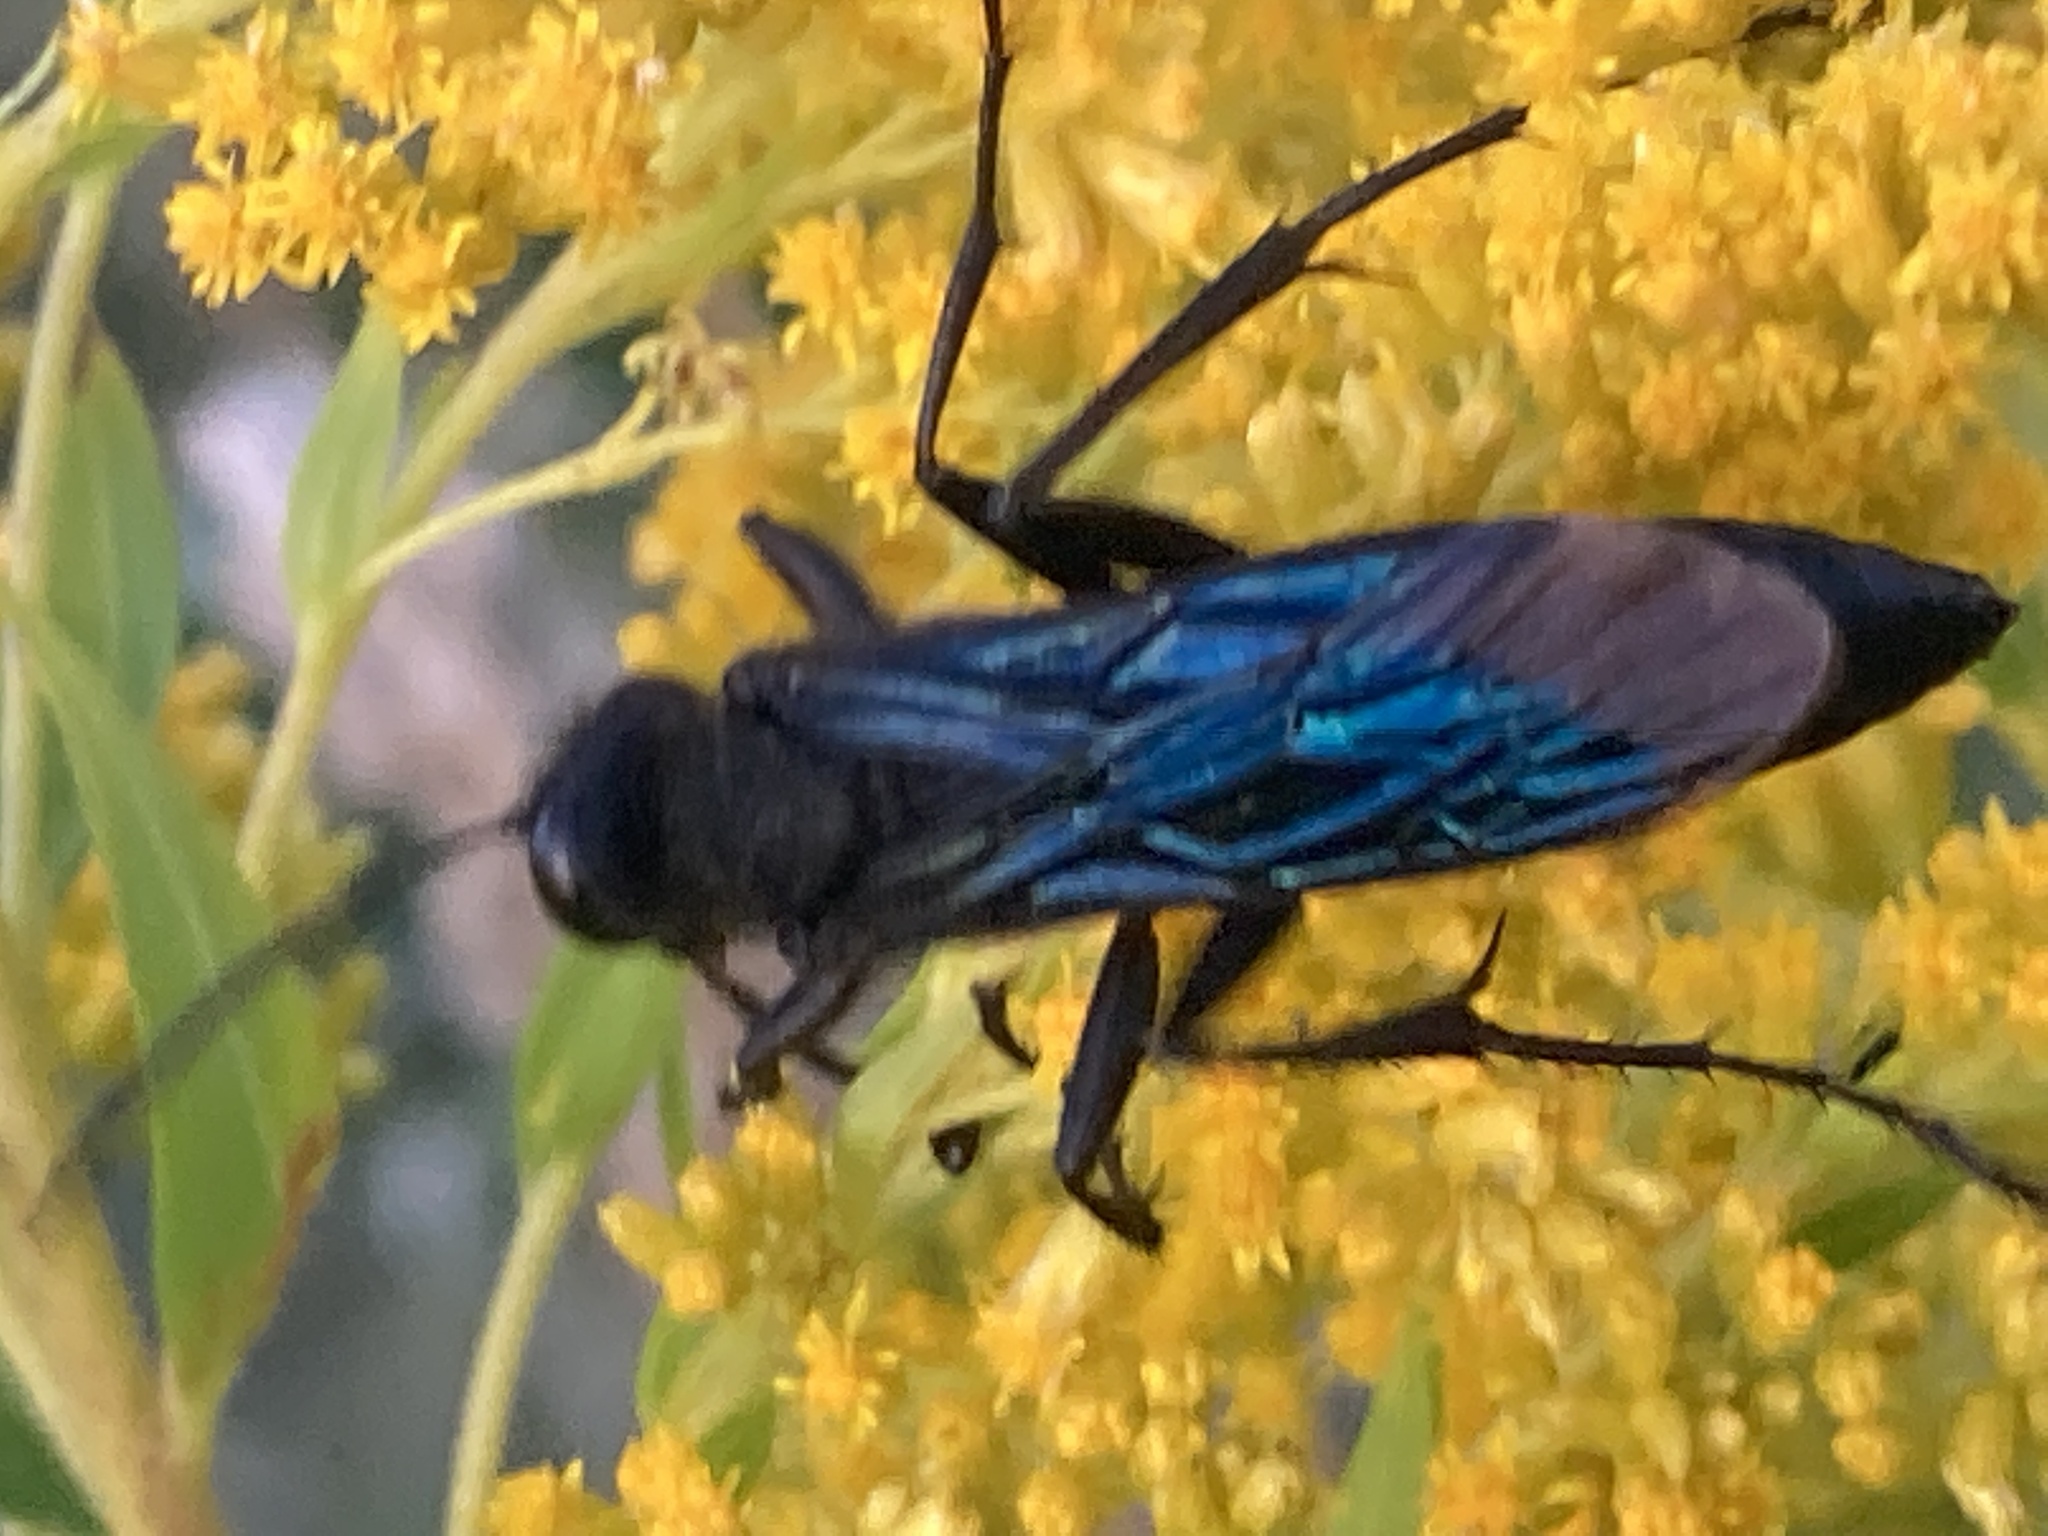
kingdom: Animalia
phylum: Arthropoda
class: Insecta
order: Hymenoptera
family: Sphecidae
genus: Sphex
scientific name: Sphex pensylvanicus
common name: Great black digger wasp
